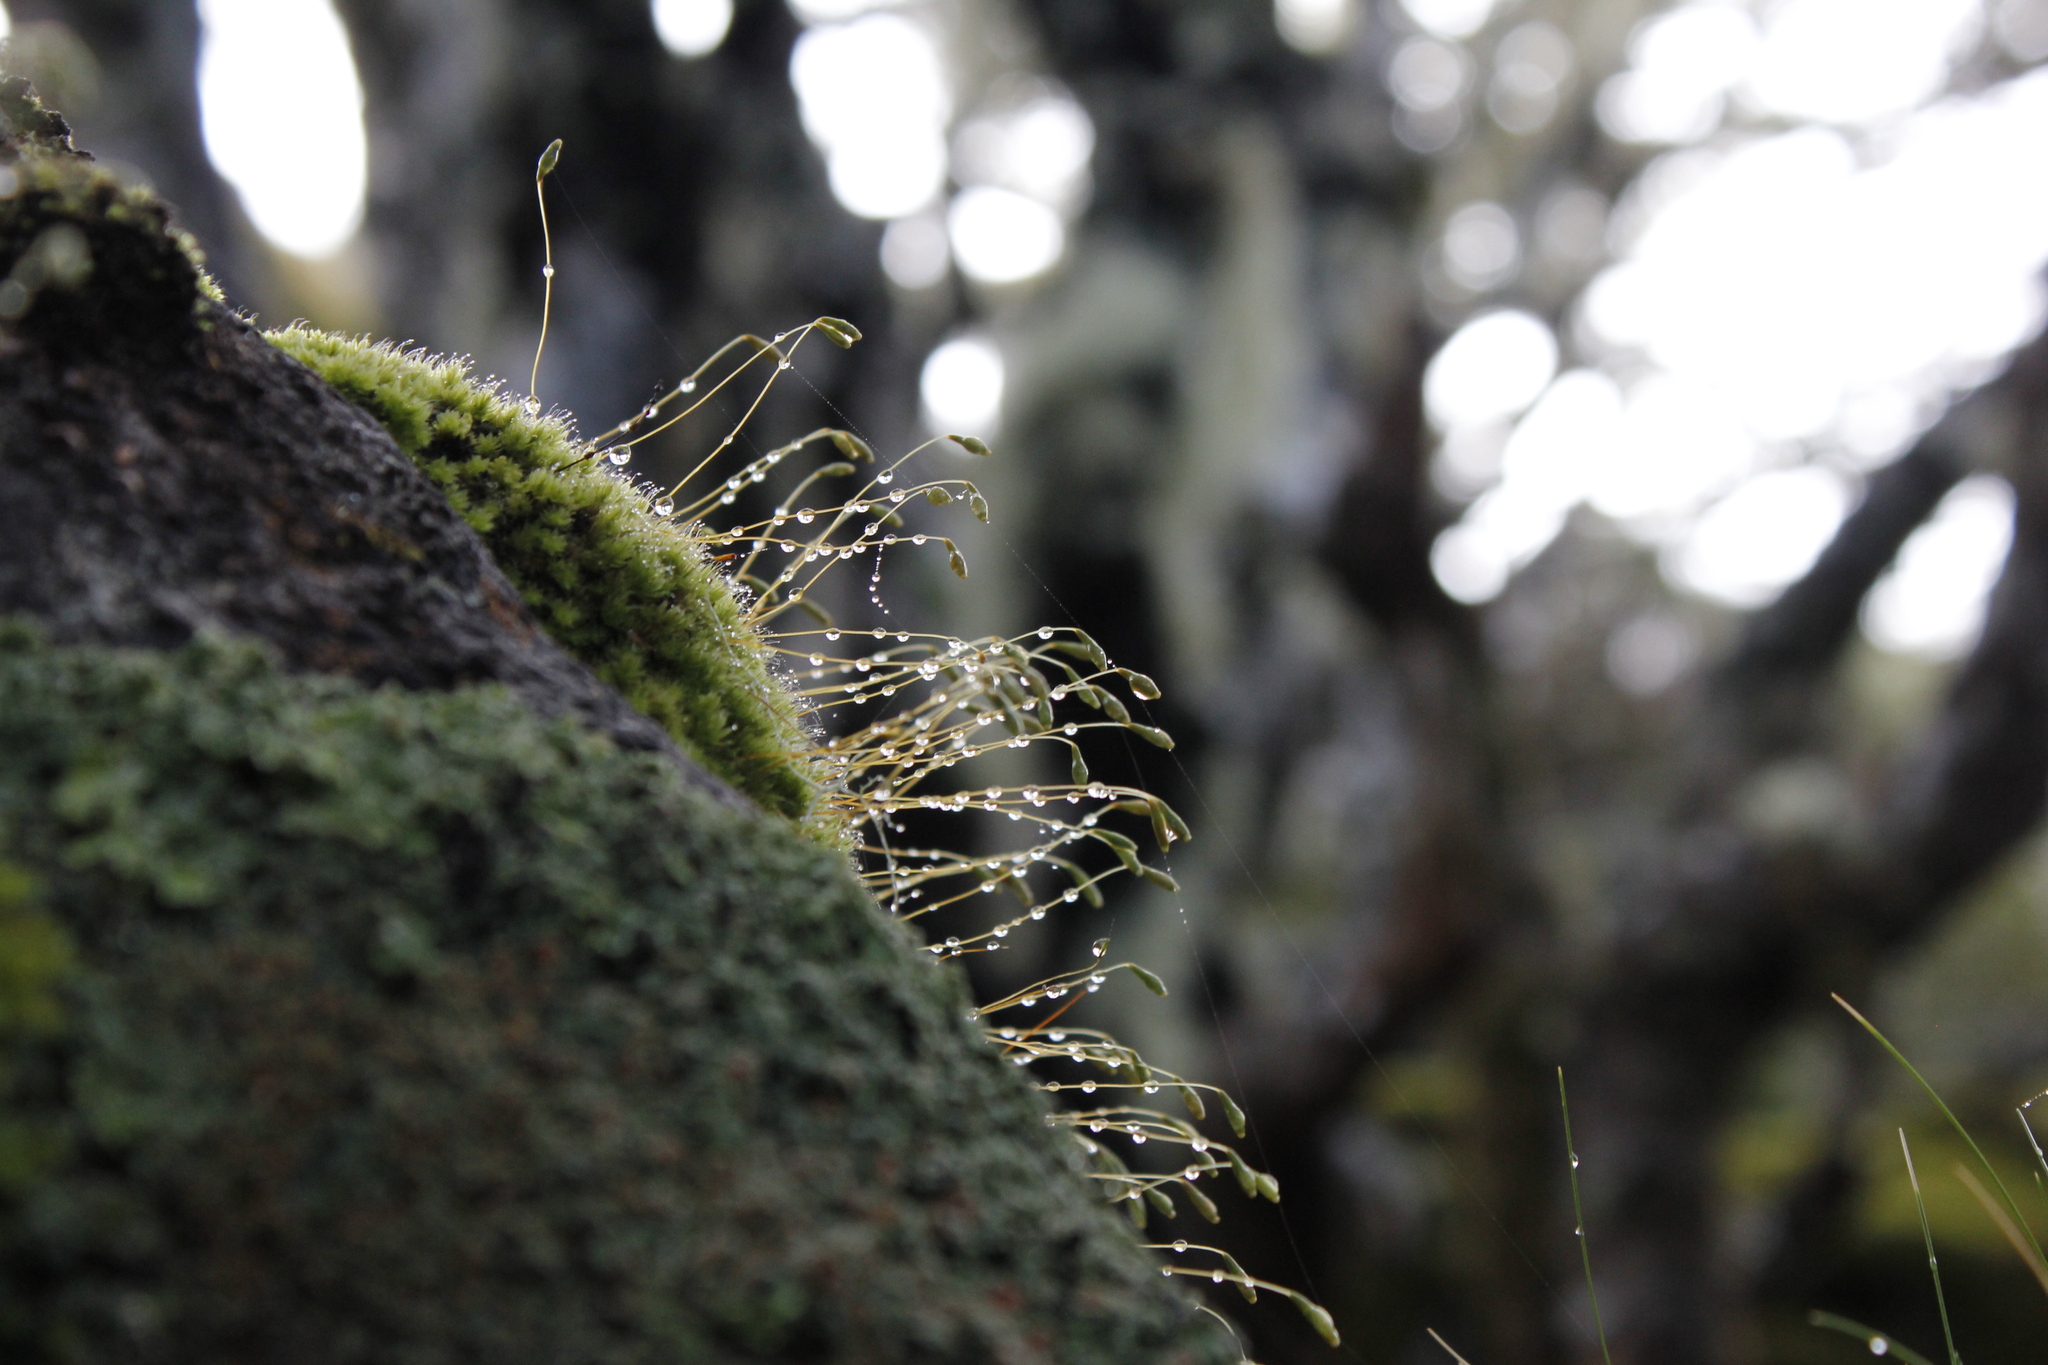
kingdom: Plantae
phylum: Bryophyta
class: Bryopsida
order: Bryales
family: Leptostomataceae
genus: Leptostomum
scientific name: Leptostomum inclinans
